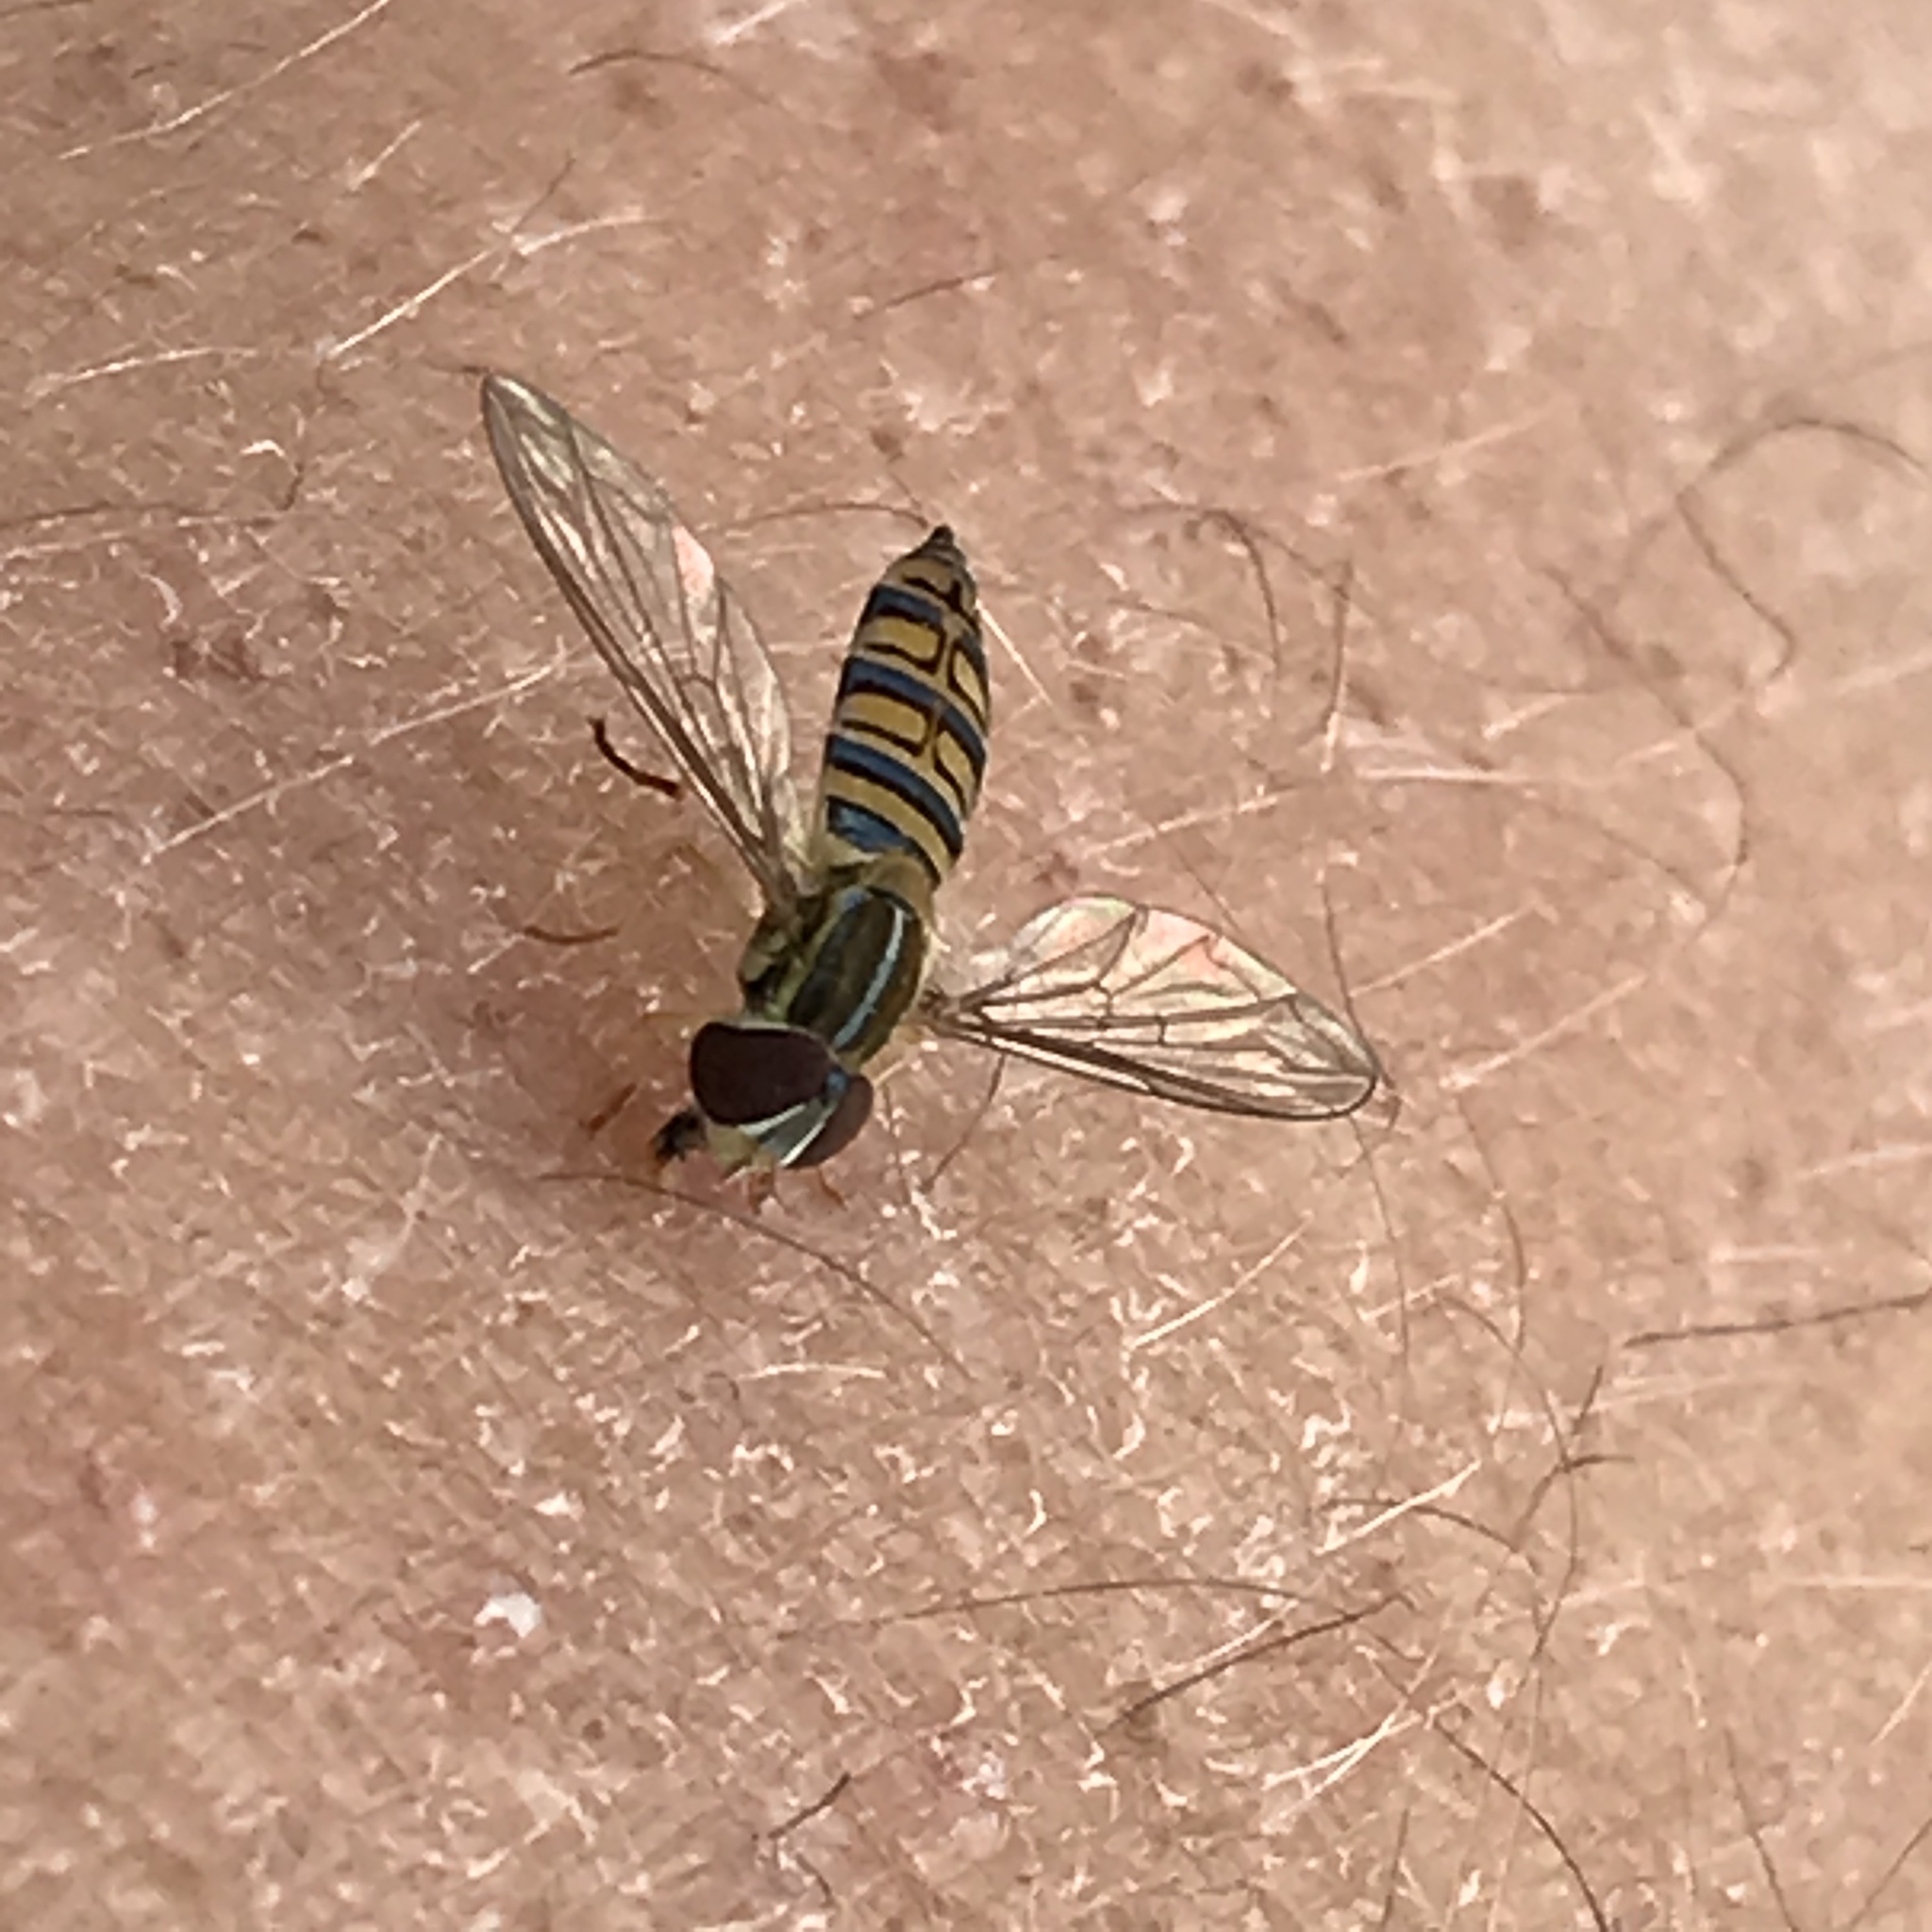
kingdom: Animalia
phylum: Arthropoda
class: Insecta
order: Diptera
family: Syrphidae
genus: Toxomerus
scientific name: Toxomerus politus
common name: Maize calligrapher
